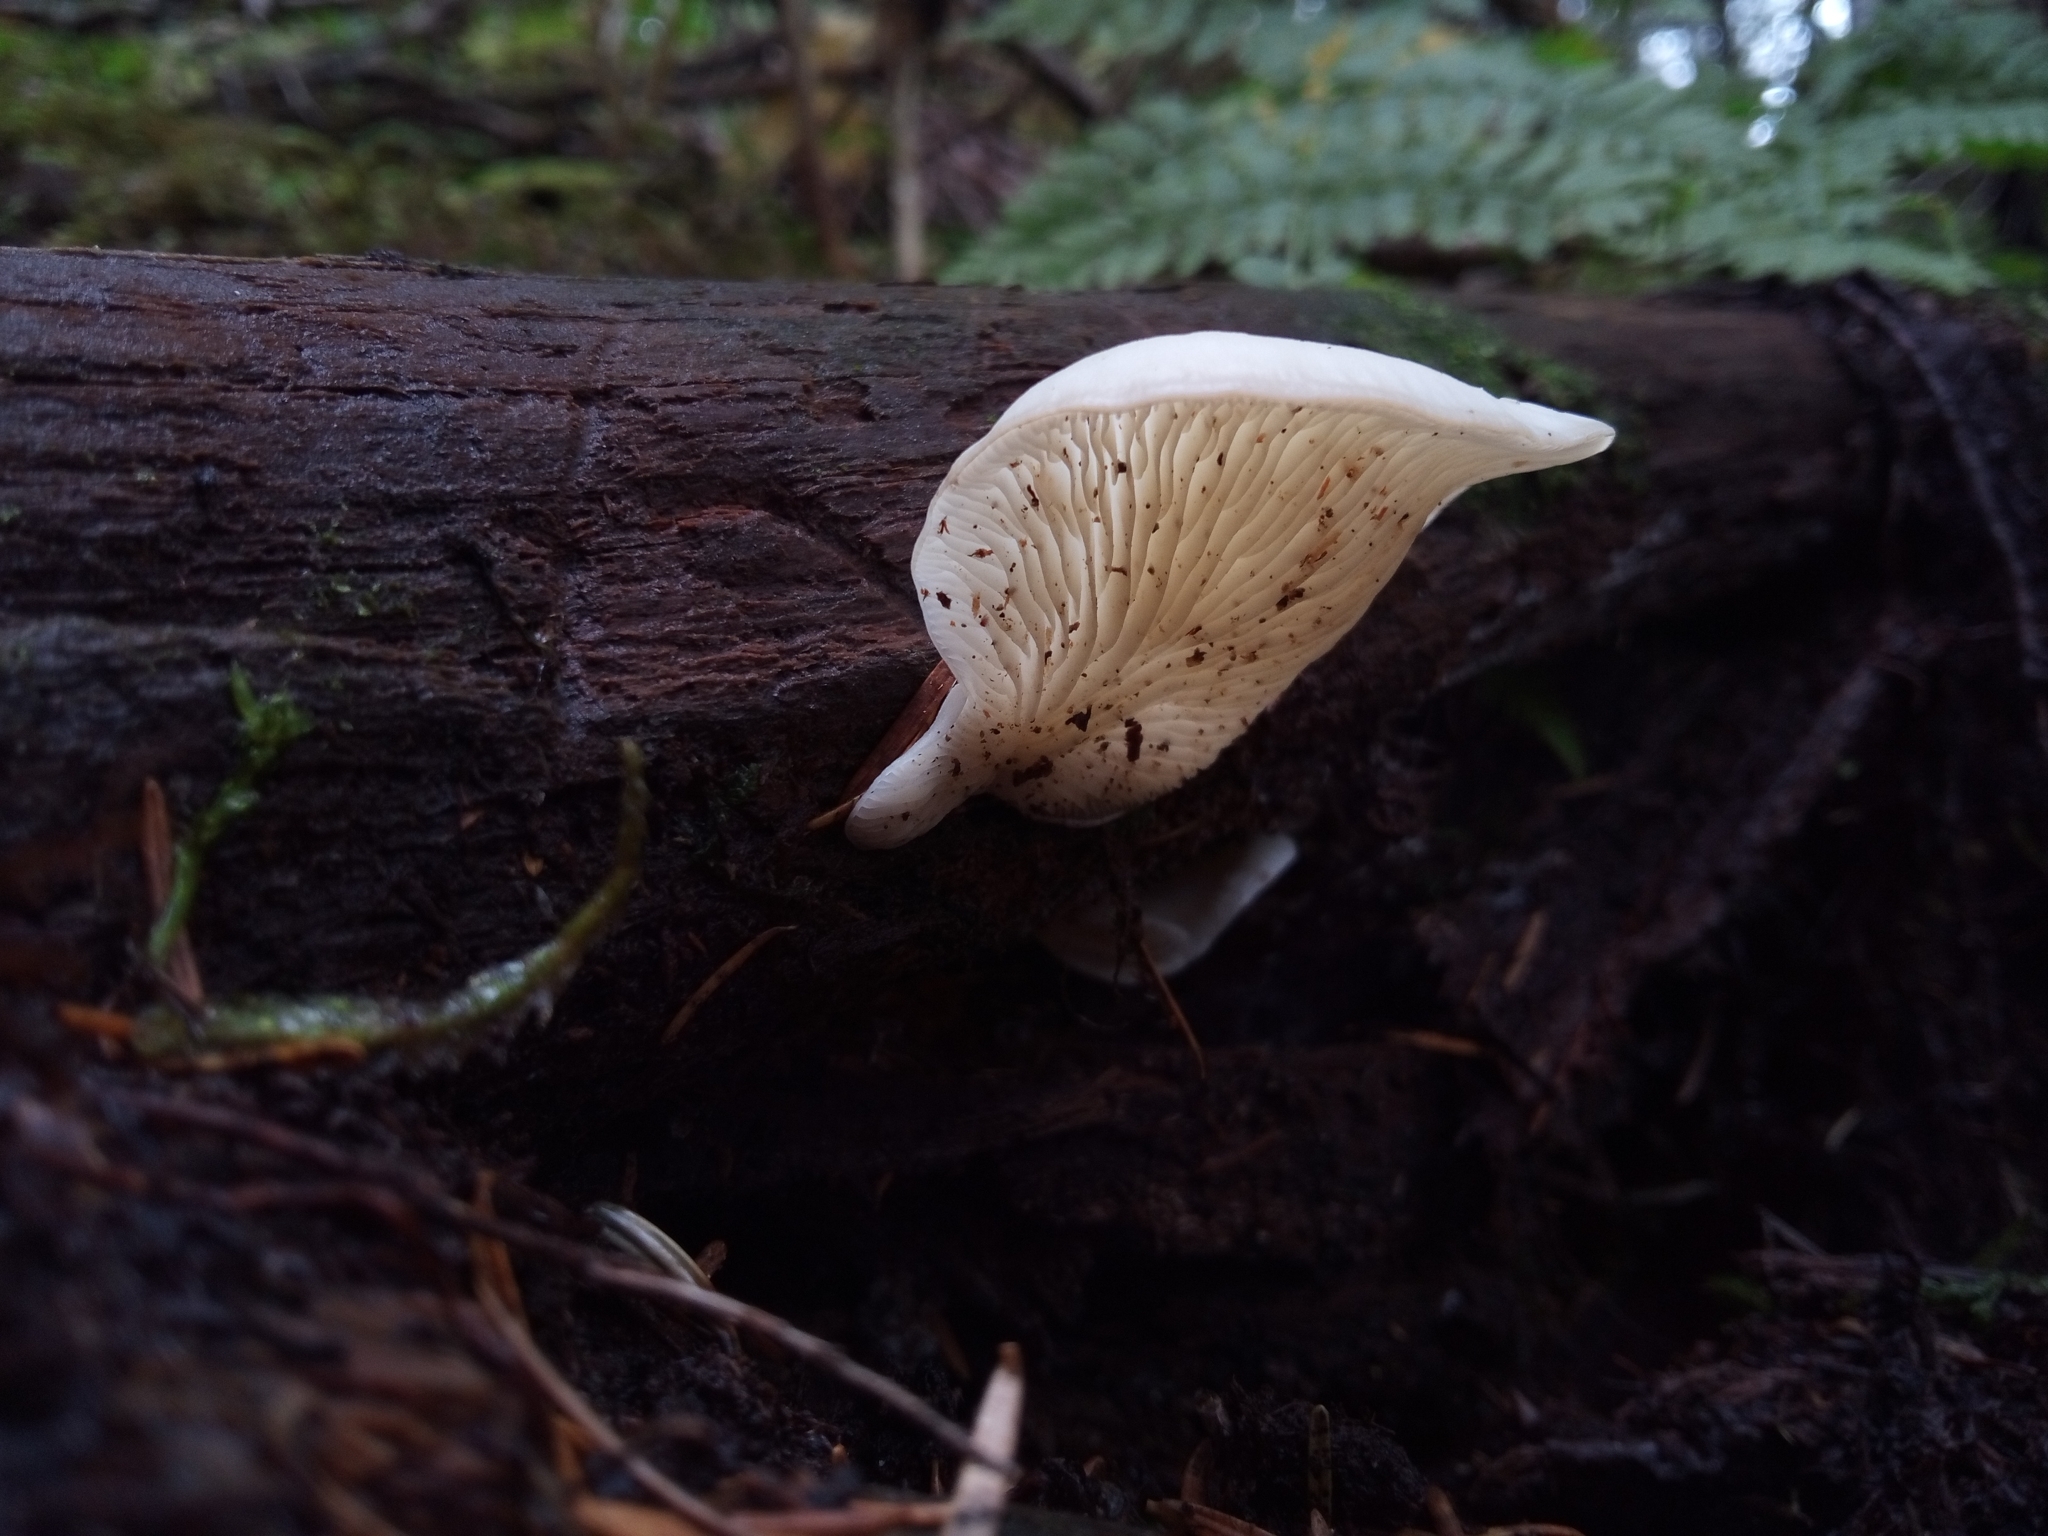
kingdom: Fungi
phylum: Basidiomycota
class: Agaricomycetes
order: Agaricales
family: Marasmiaceae
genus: Pleurocybella
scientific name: Pleurocybella porrigens
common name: Angel's wings
